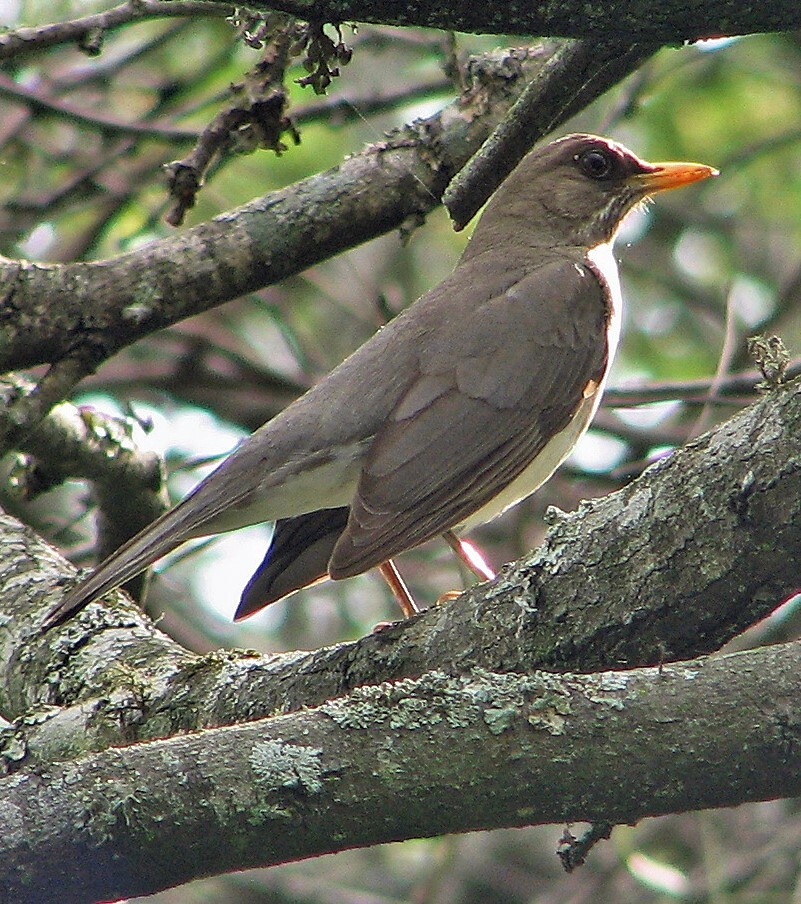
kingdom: Animalia
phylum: Chordata
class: Aves
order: Passeriformes
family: Turdidae
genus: Turdus
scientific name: Turdus amaurochalinus
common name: Creamy-bellied thrush
